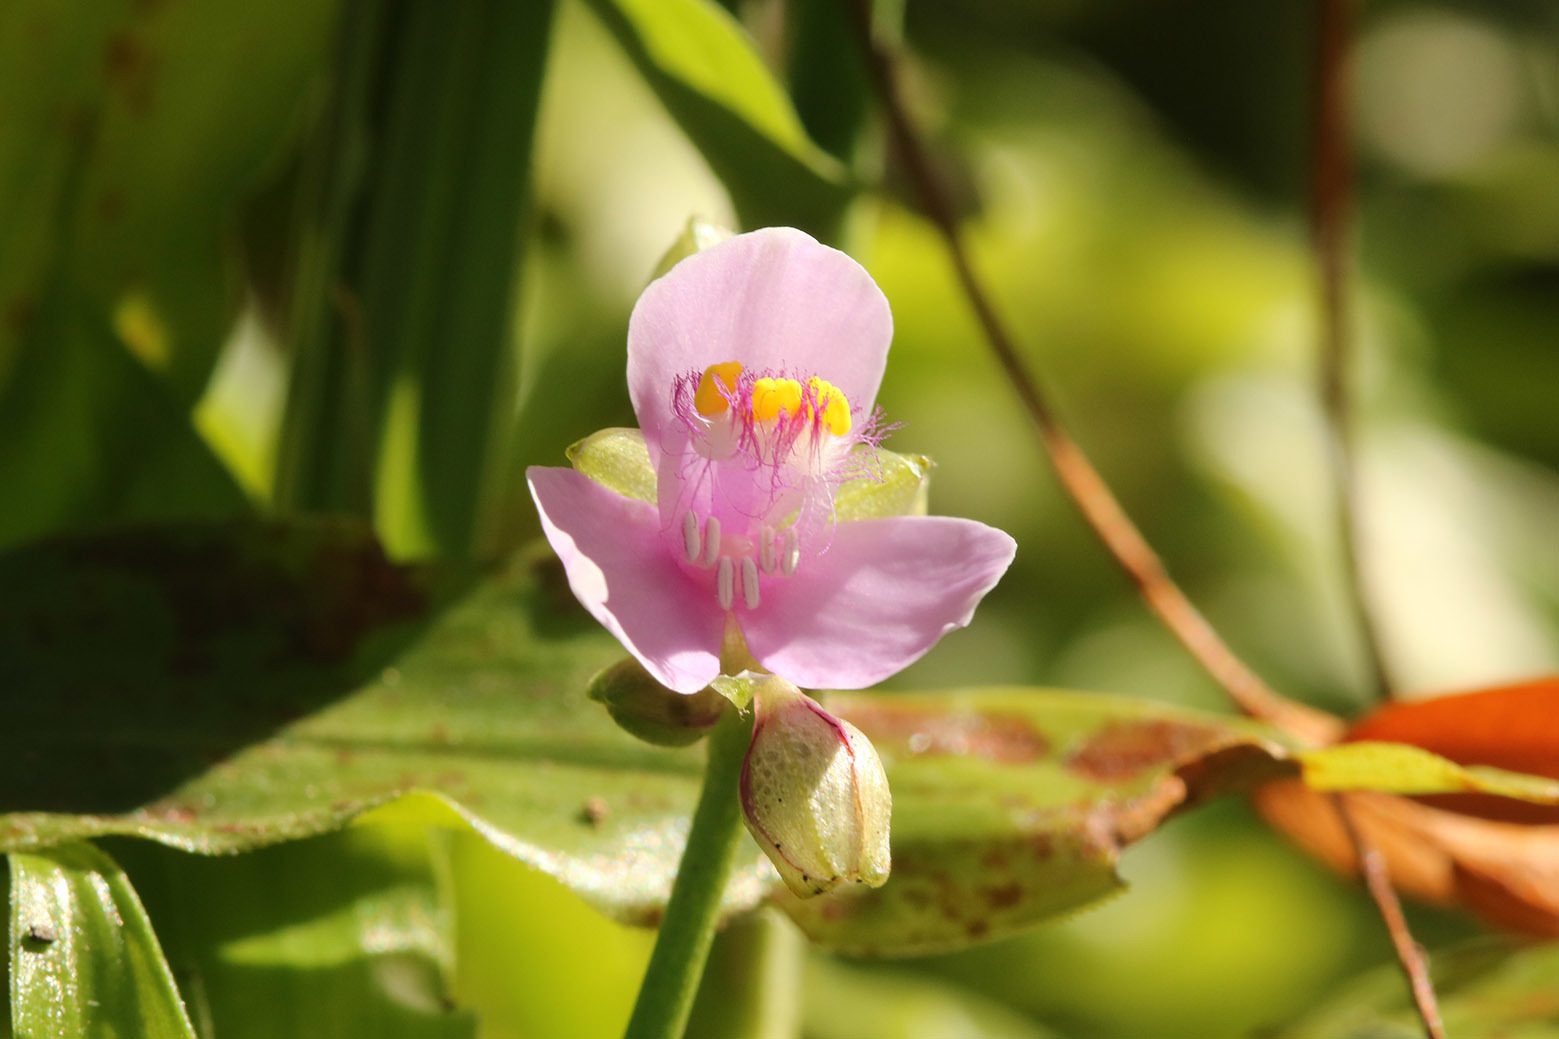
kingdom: Plantae
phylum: Tracheophyta
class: Liliopsida
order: Commelinales
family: Commelinaceae
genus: Callisia
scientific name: Callisia diuretica
